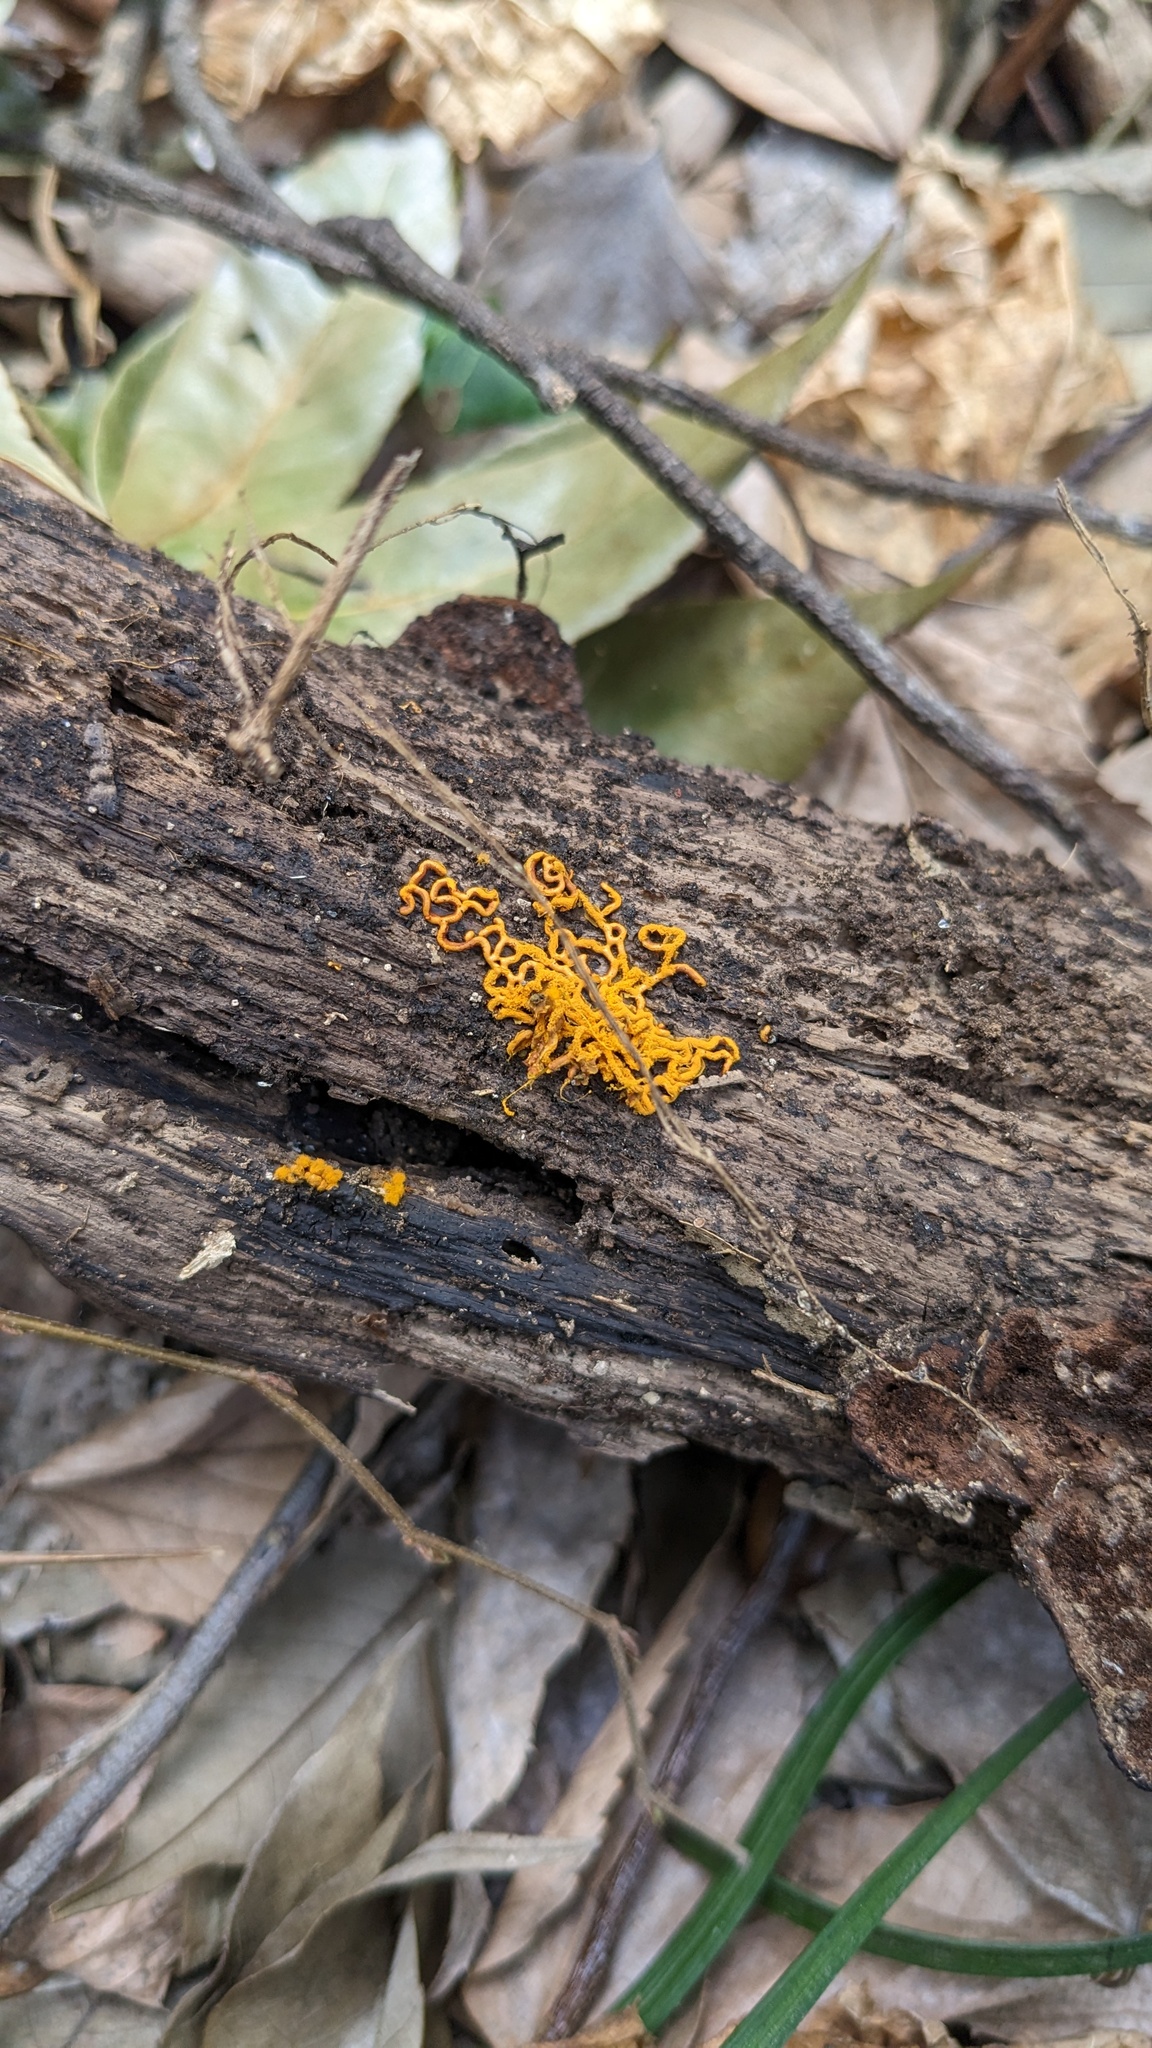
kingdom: Protozoa
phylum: Mycetozoa
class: Myxomycetes
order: Trichiales
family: Arcyriaceae
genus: Hemitrichia
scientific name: Hemitrichia serpula
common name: Pretzel slime mold
